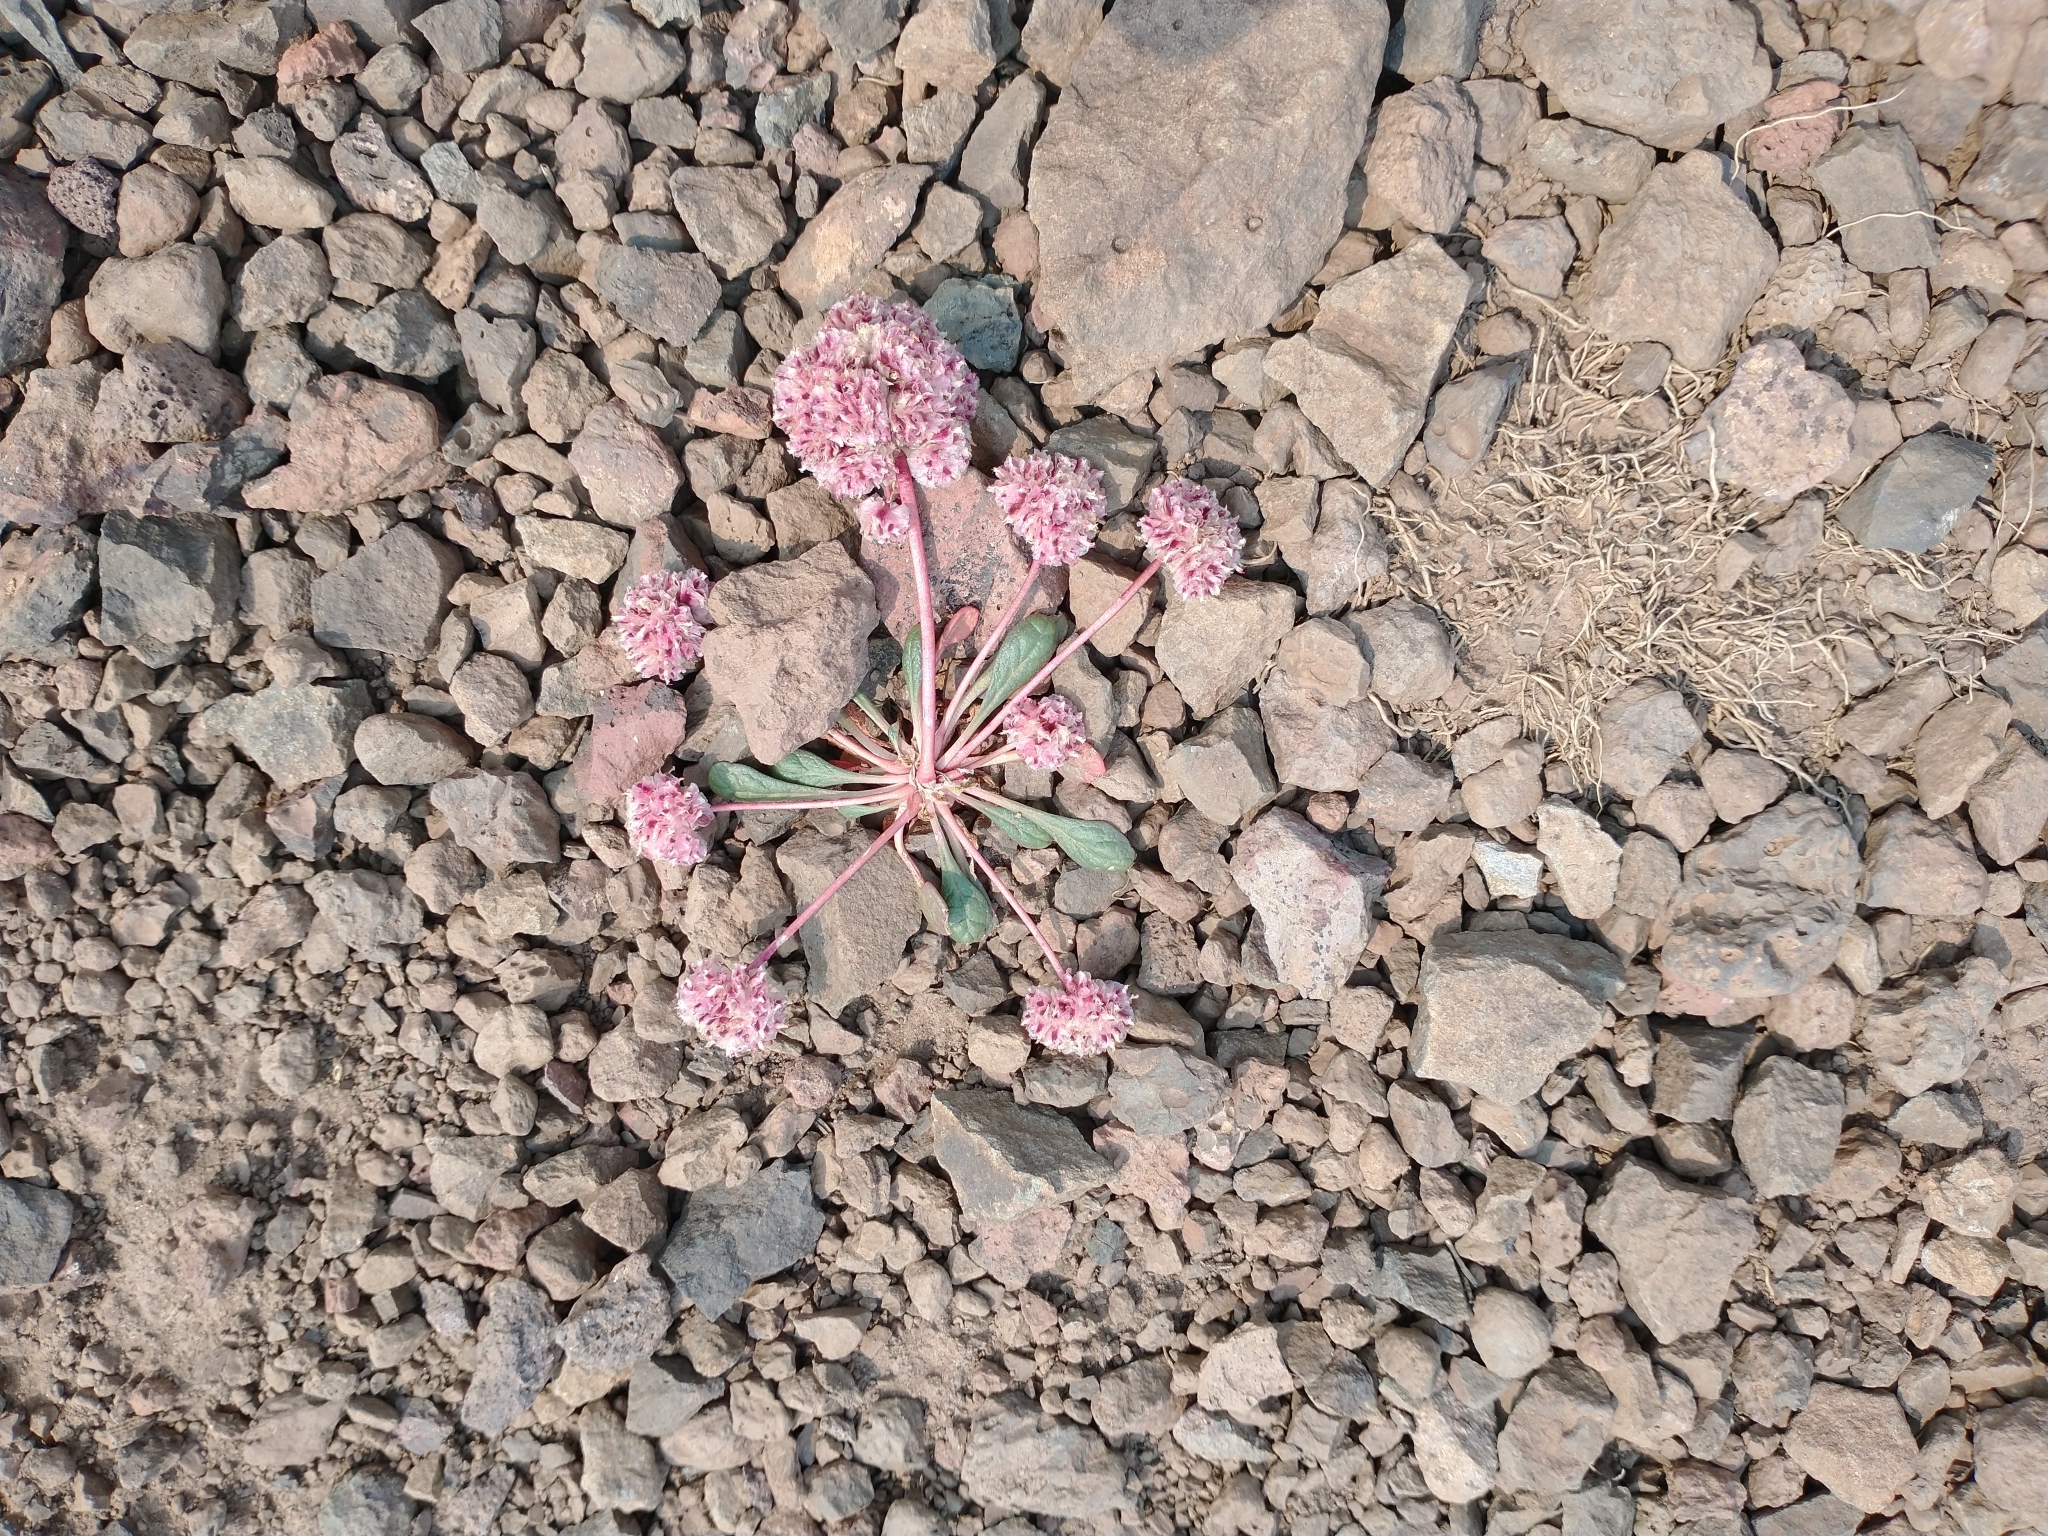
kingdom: Plantae
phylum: Tracheophyta
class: Magnoliopsida
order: Caryophyllales
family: Montiaceae
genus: Calyptridium
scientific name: Calyptridium monospermum
